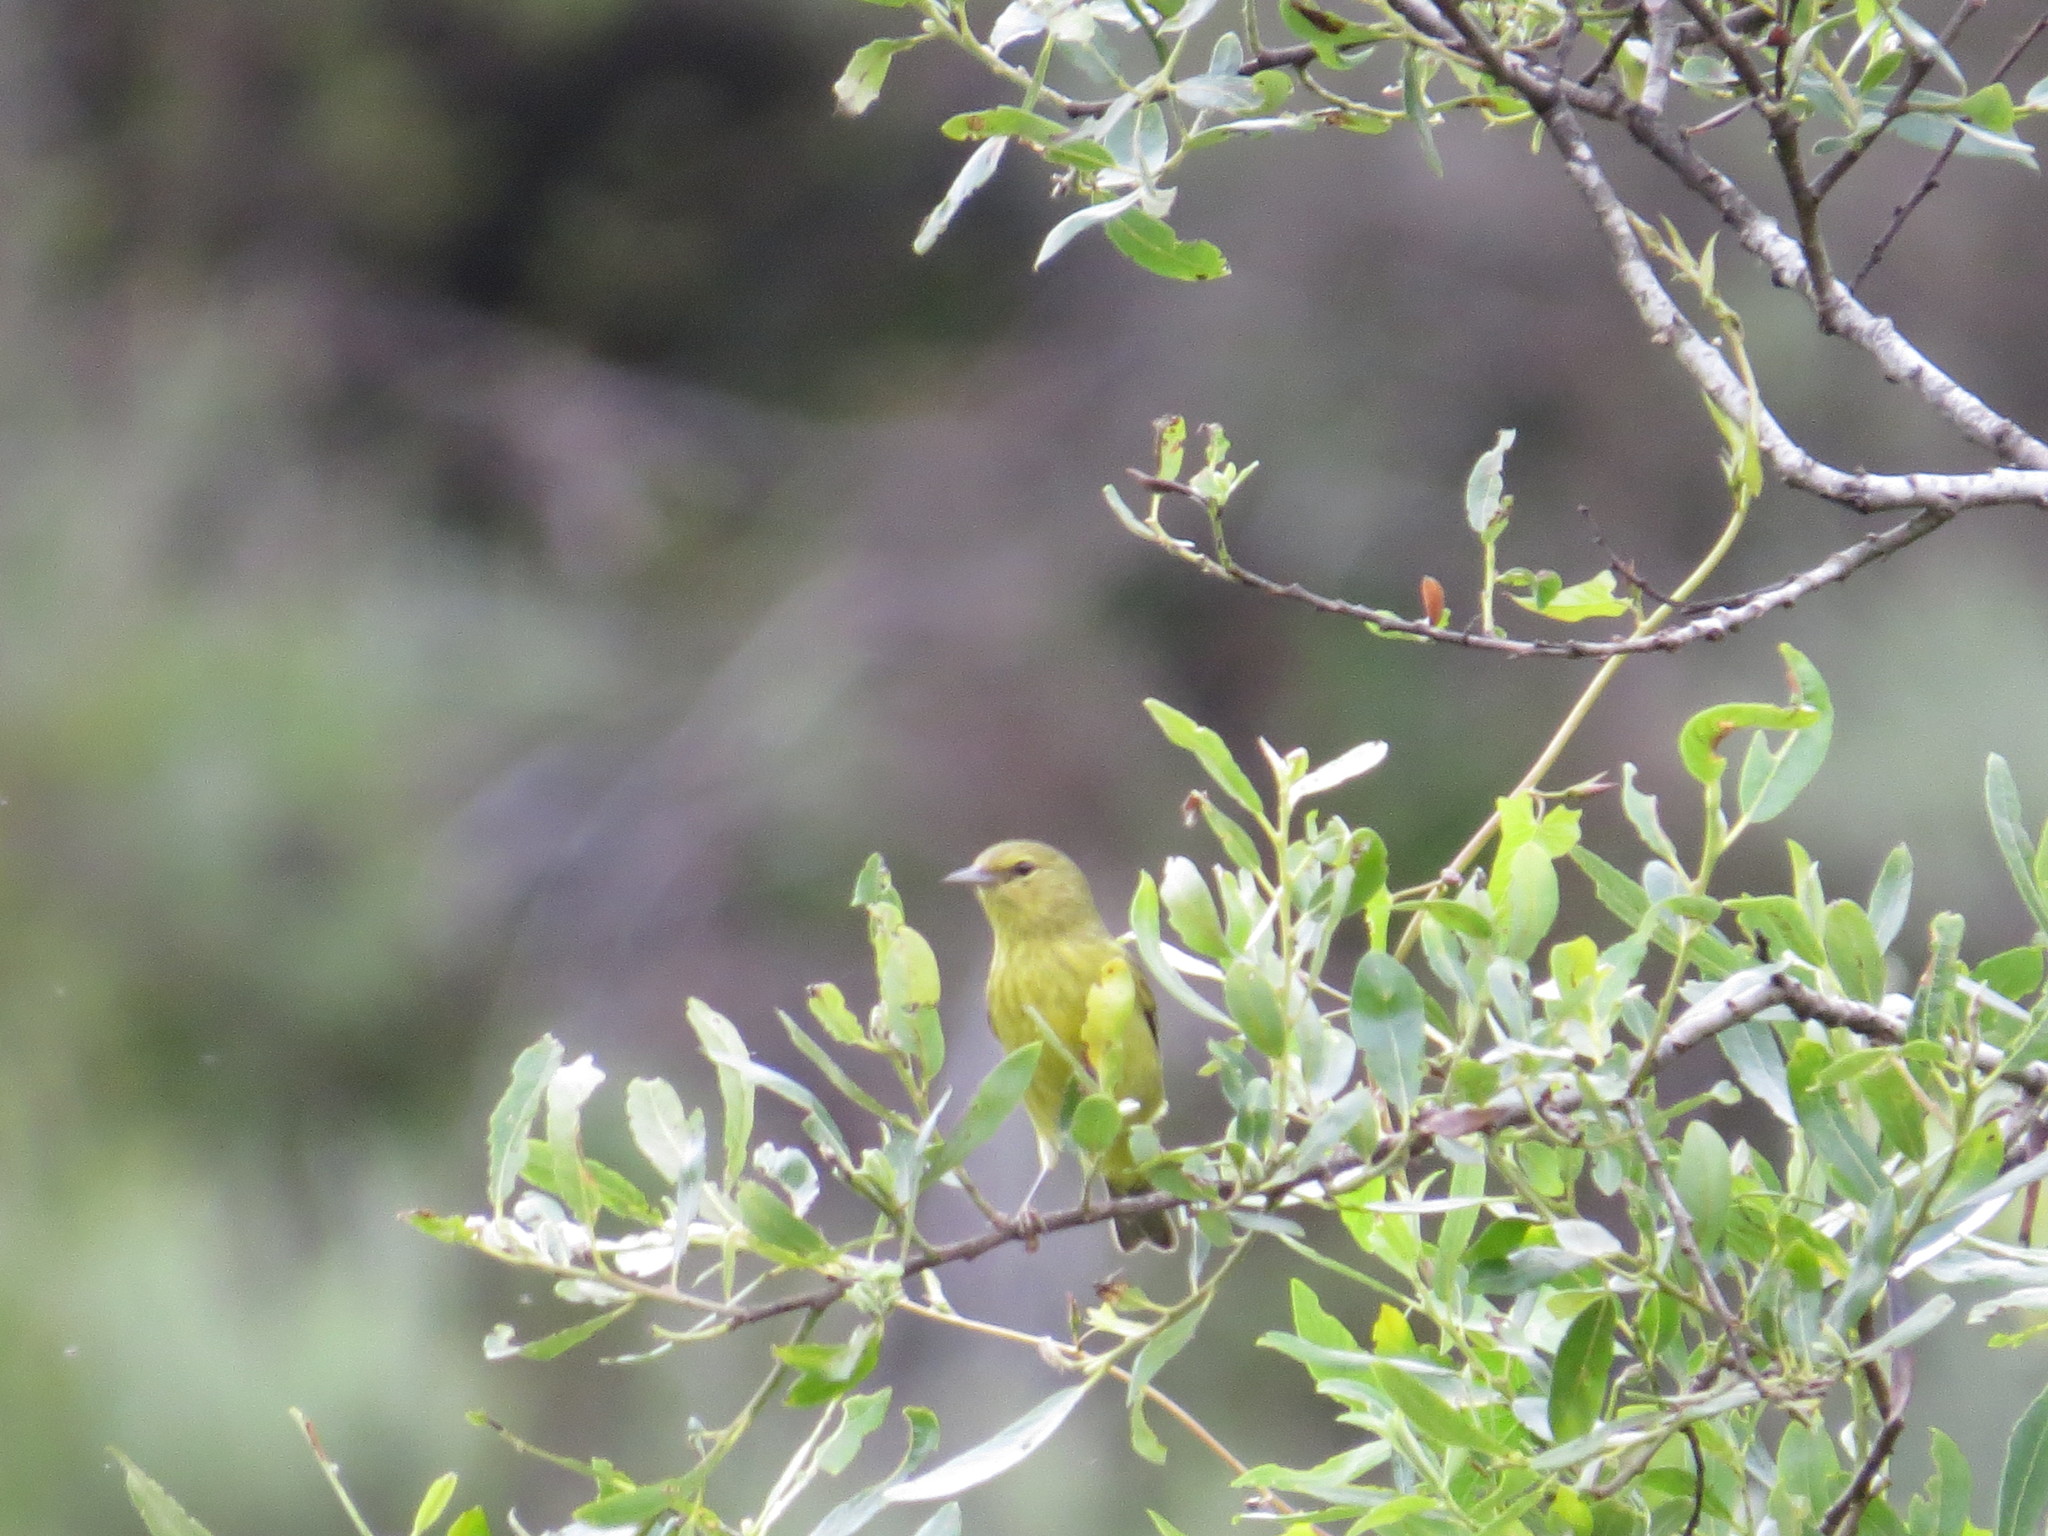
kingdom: Animalia
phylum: Chordata
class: Aves
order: Passeriformes
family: Parulidae
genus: Leiothlypis
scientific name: Leiothlypis celata
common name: Orange-crowned warbler
